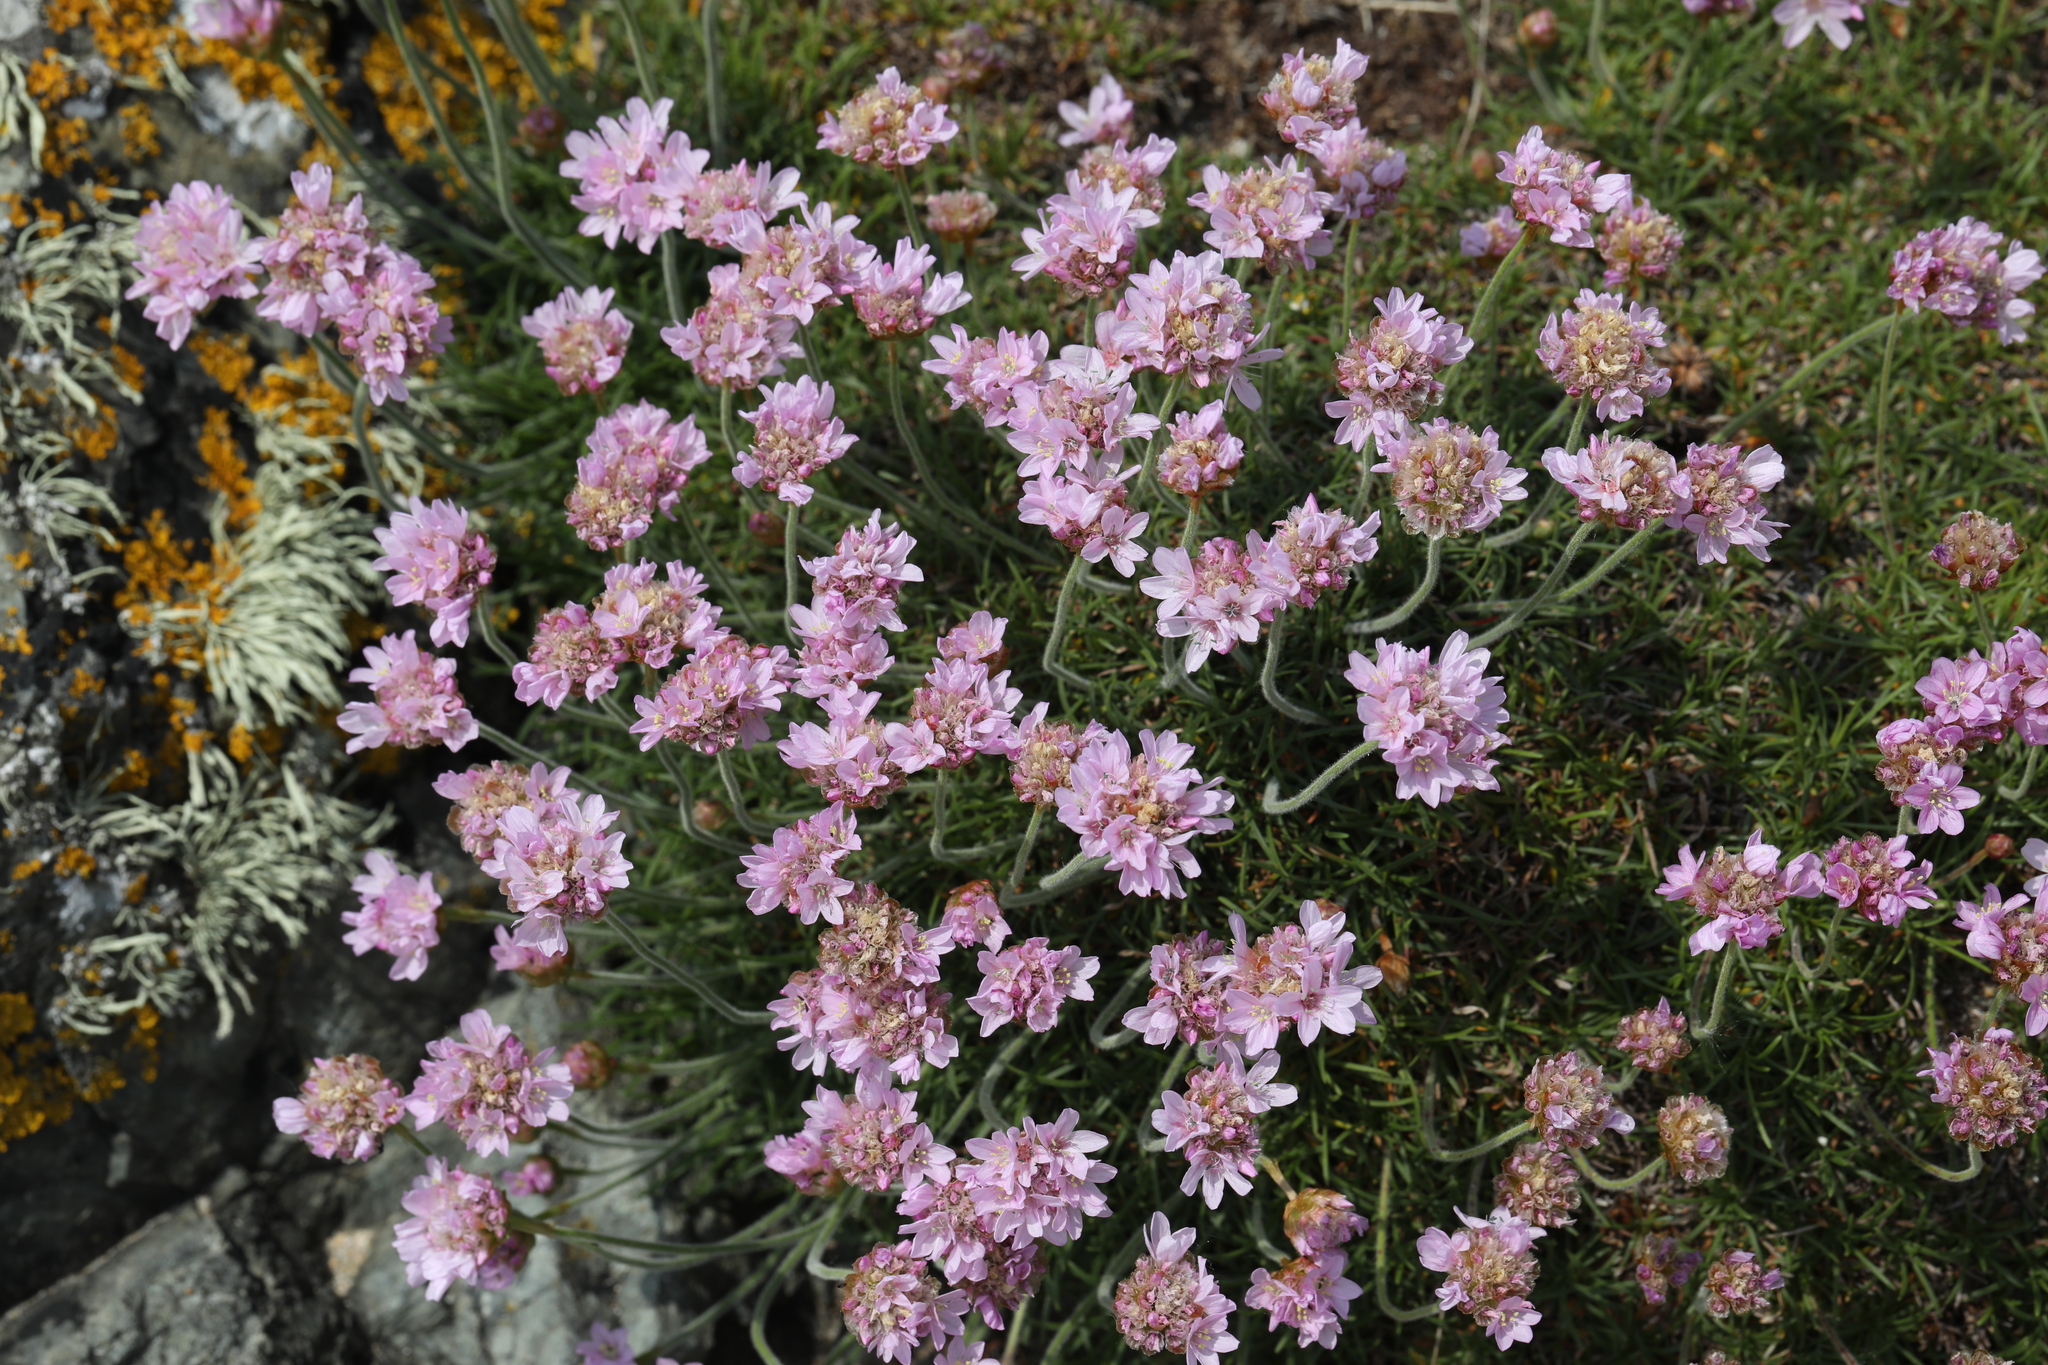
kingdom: Plantae
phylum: Tracheophyta
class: Magnoliopsida
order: Caryophyllales
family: Plumbaginaceae
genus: Armeria
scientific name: Armeria maritima
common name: Thrift
